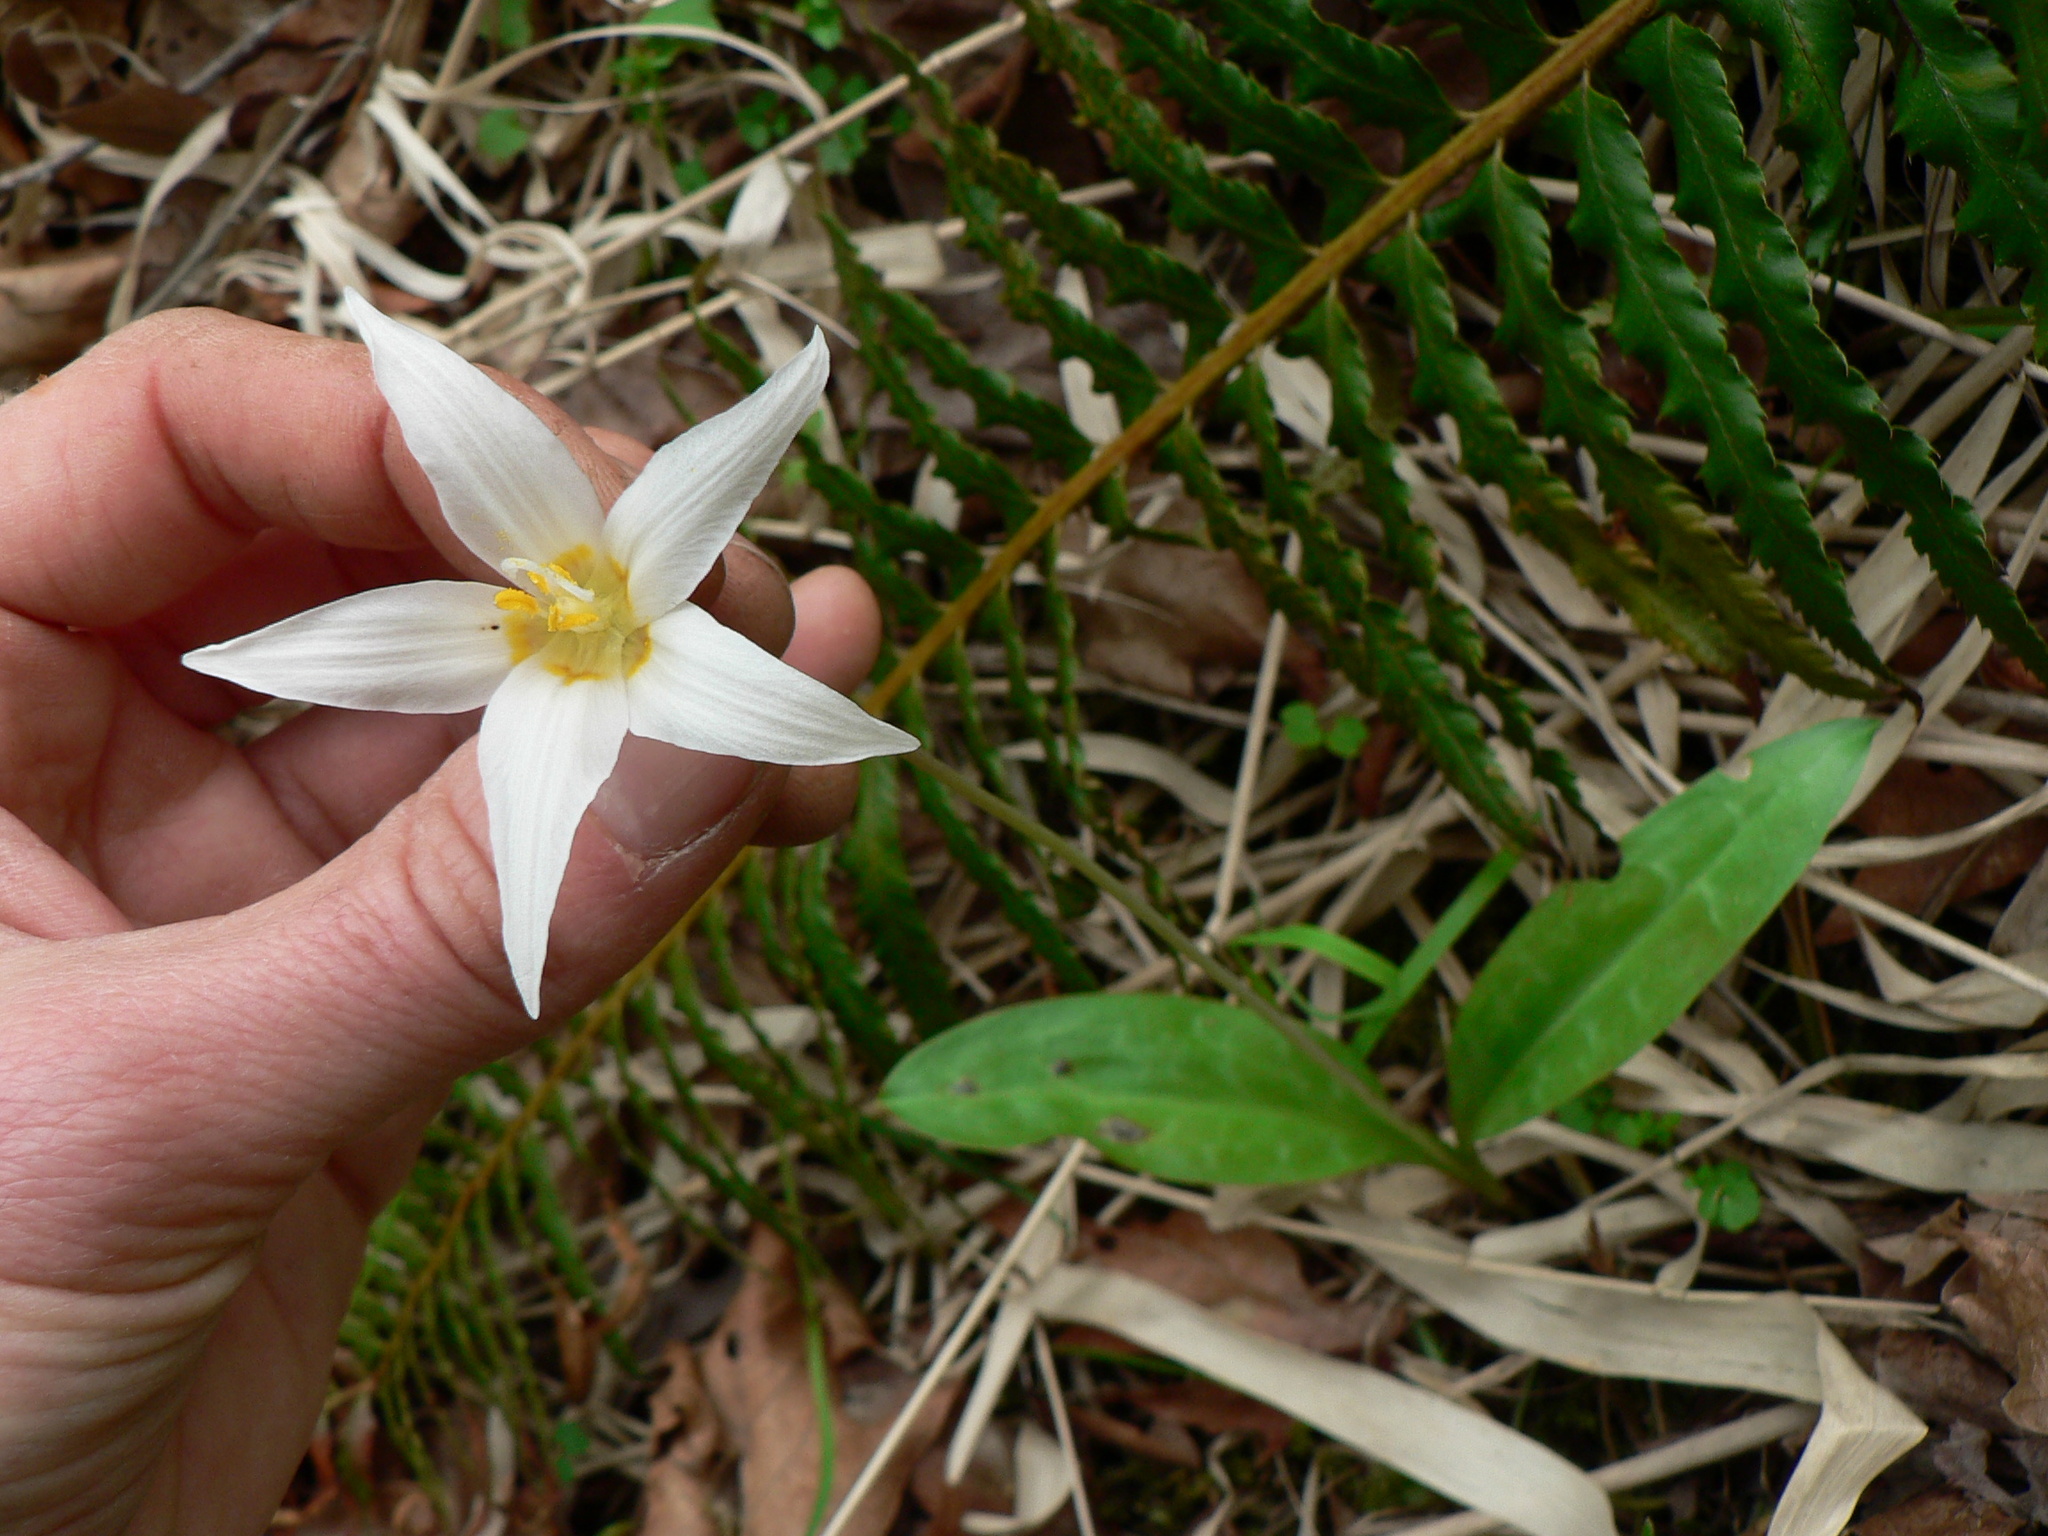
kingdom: Plantae
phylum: Tracheophyta
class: Liliopsida
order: Liliales
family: Liliaceae
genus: Erythronium
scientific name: Erythronium oregonum
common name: Giant adder's-tongue
